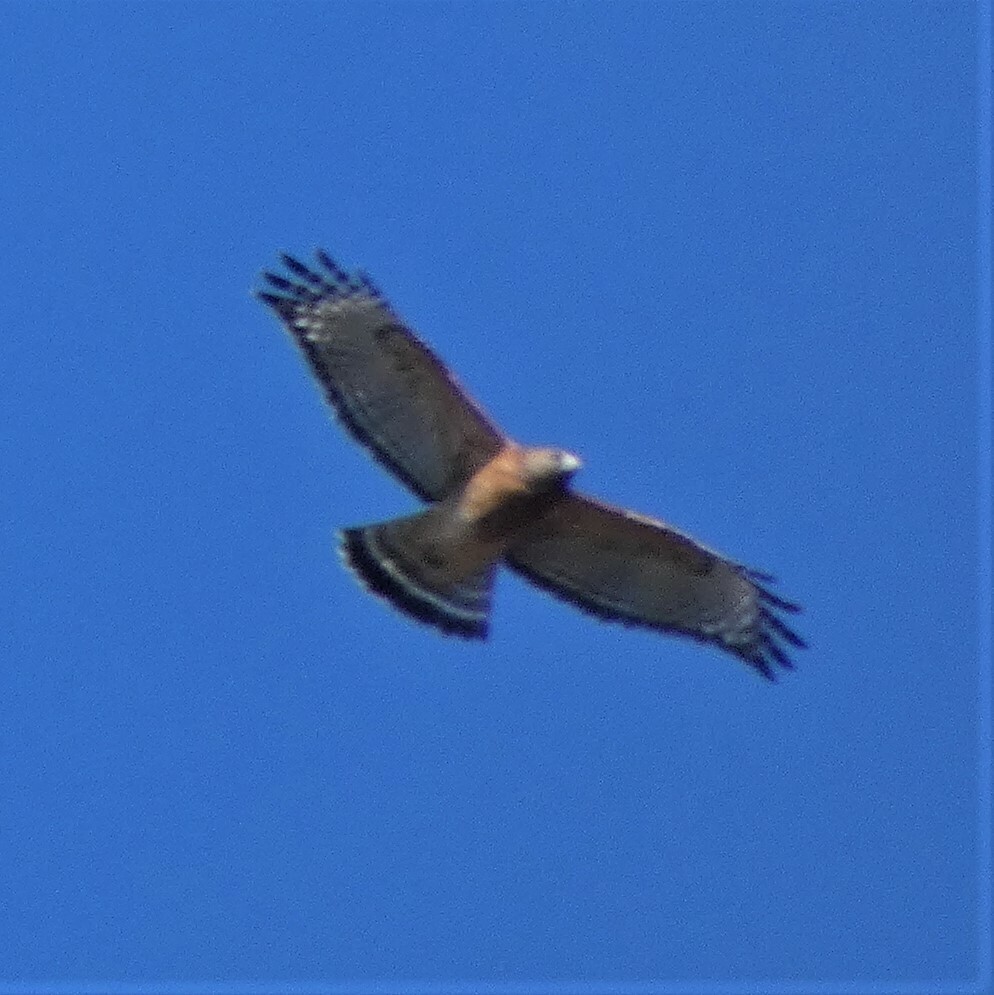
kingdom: Animalia
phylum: Chordata
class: Aves
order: Accipitriformes
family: Accipitridae
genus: Buteo
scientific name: Buteo lineatus
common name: Red-shouldered hawk
